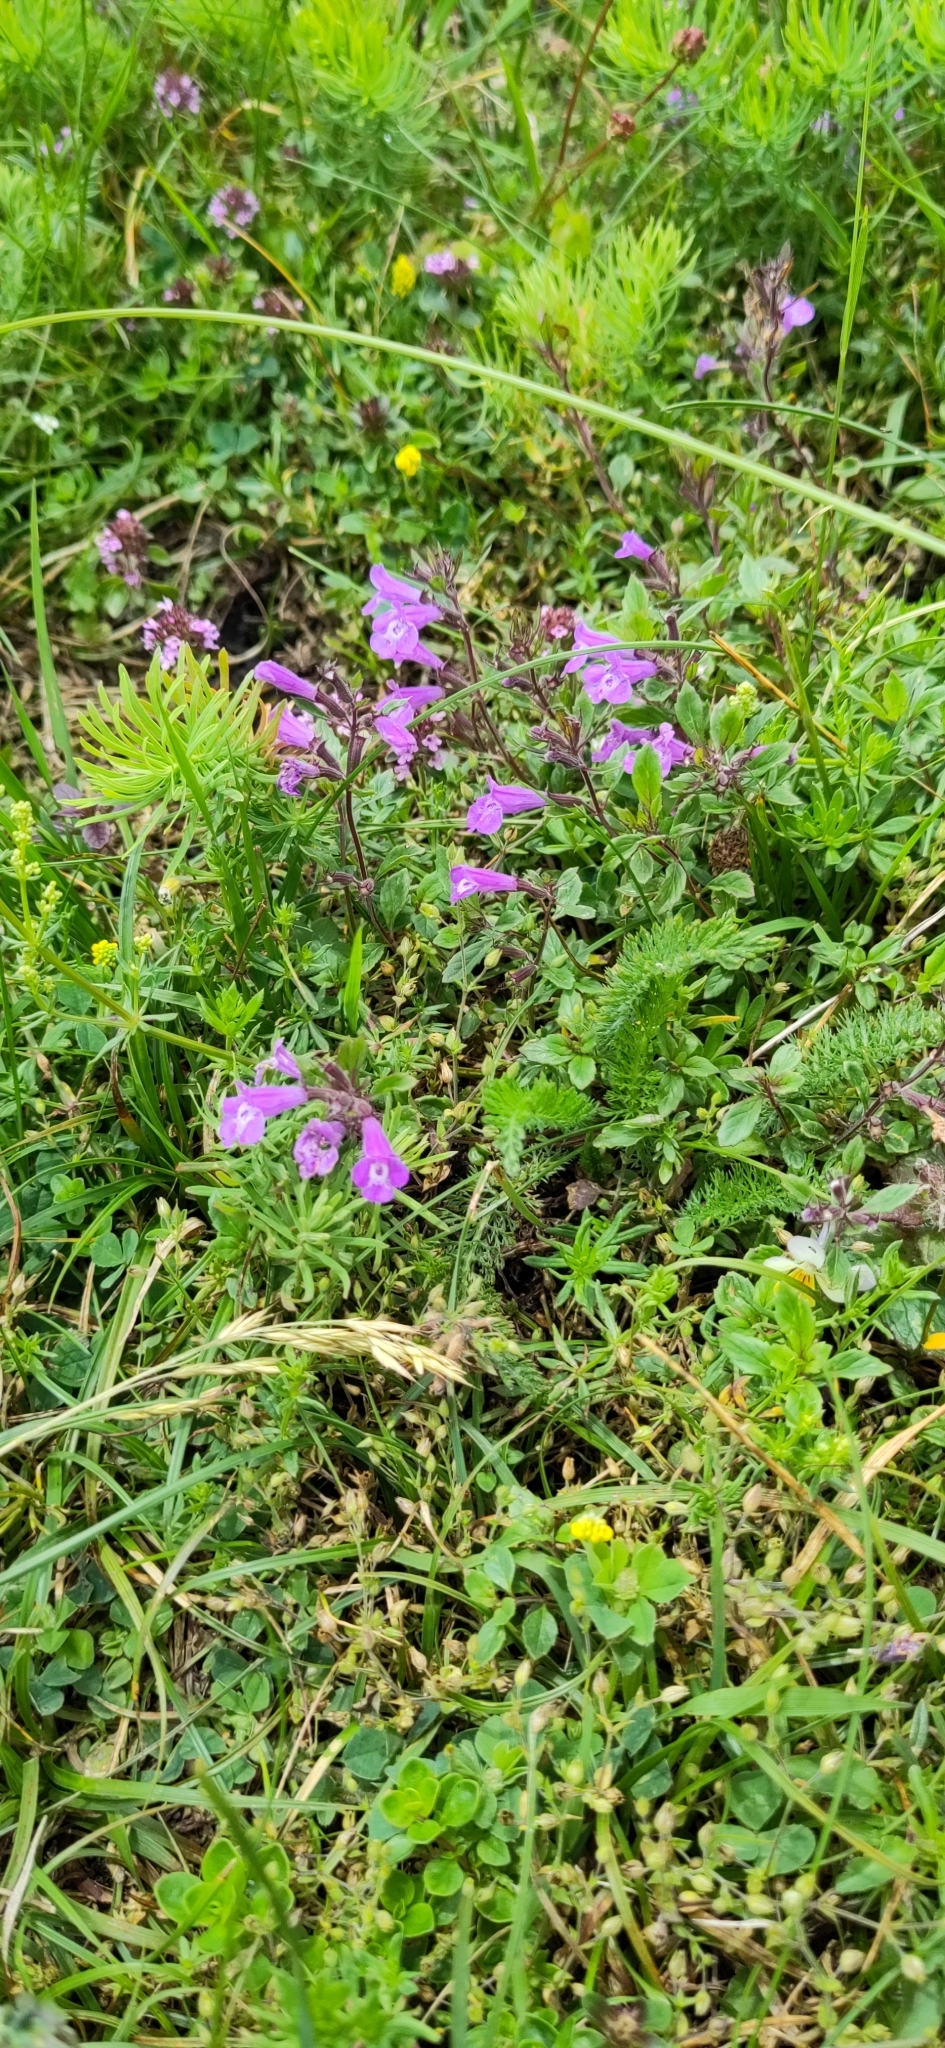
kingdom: Plantae
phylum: Tracheophyta
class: Magnoliopsida
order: Lamiales
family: Lamiaceae
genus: Clinopodium
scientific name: Clinopodium alpinum
